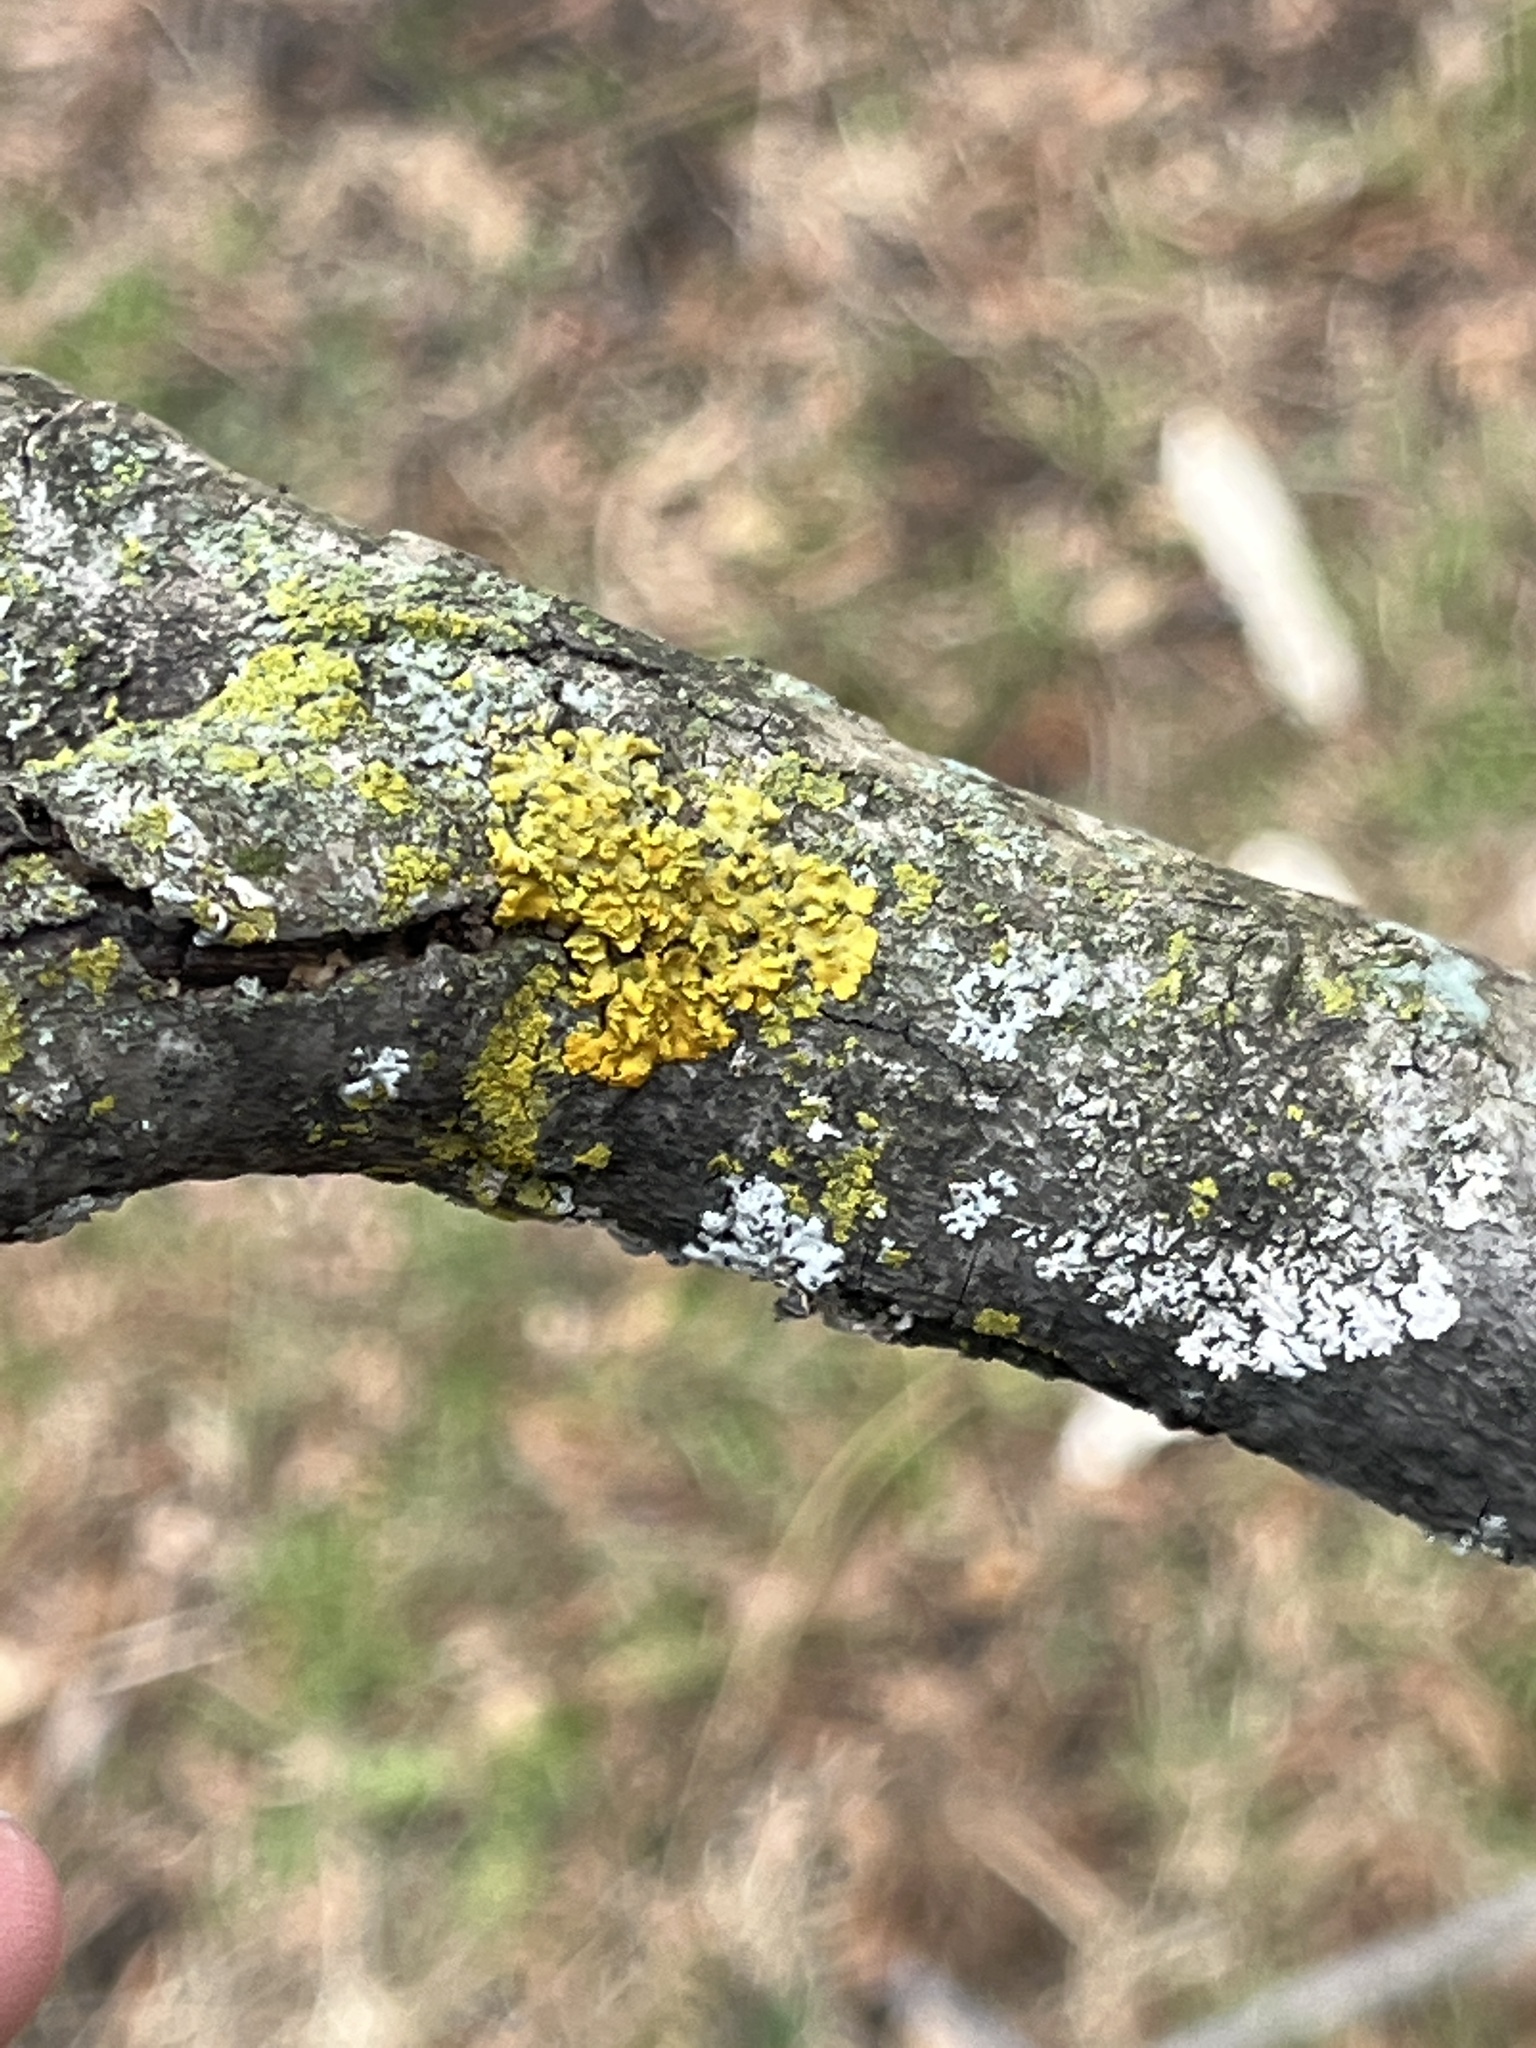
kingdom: Fungi
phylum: Ascomycota
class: Lecanoromycetes
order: Teloschistales
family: Teloschistaceae
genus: Oxneria
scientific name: Oxneria fallax
